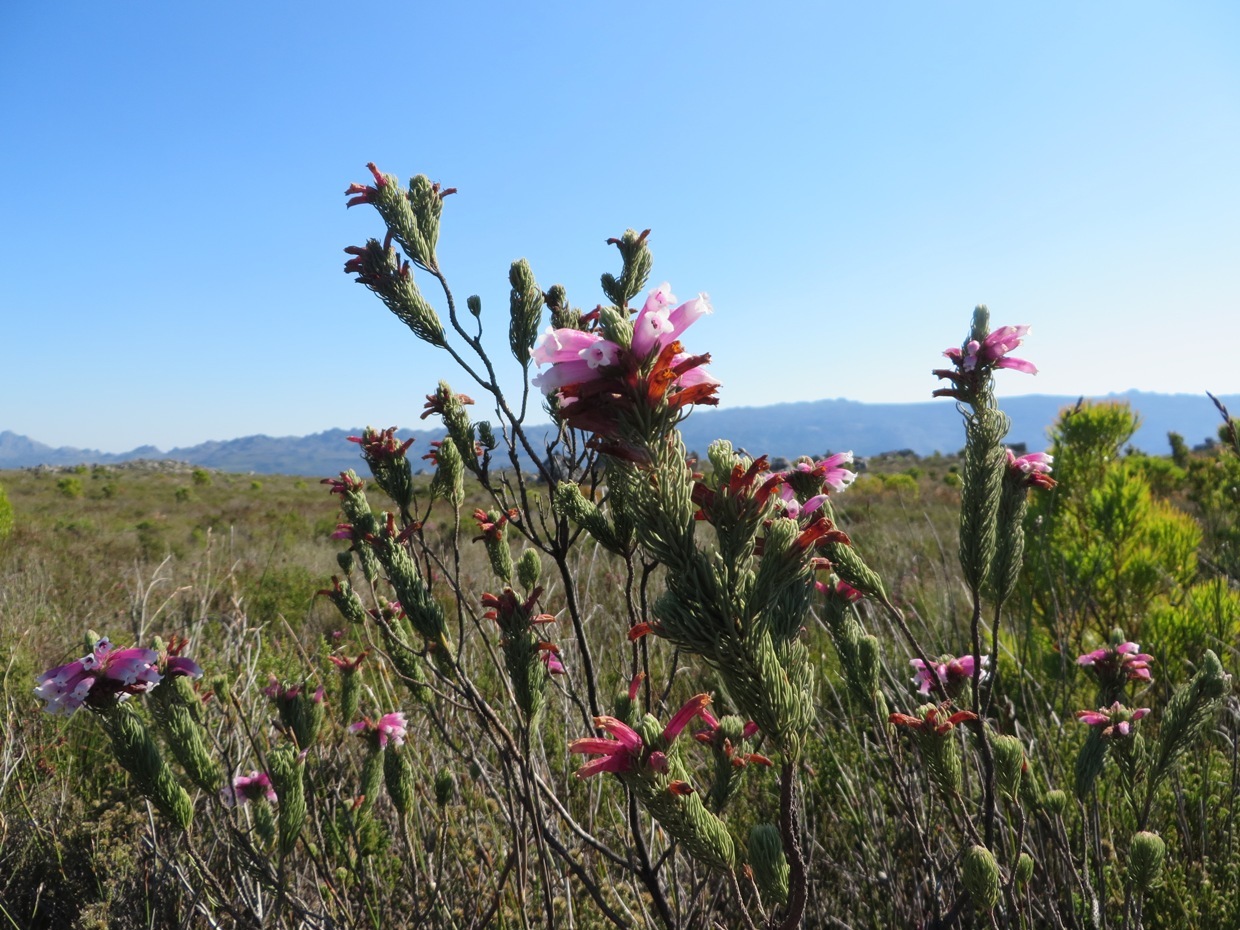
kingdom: Plantae
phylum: Tracheophyta
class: Magnoliopsida
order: Ericales
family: Ericaceae
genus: Erica
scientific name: Erica viscaria
